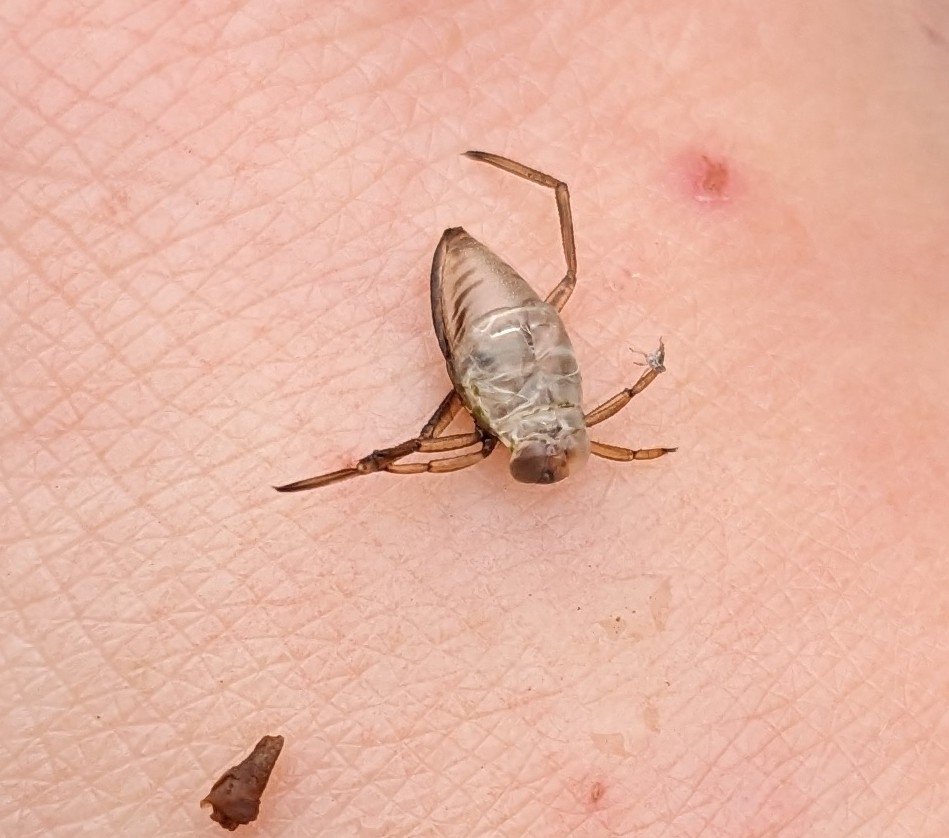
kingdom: Animalia
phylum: Arthropoda
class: Insecta
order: Hemiptera
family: Notonectidae
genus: Notonecta
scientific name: Notonecta glauca
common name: Common water-boatman
